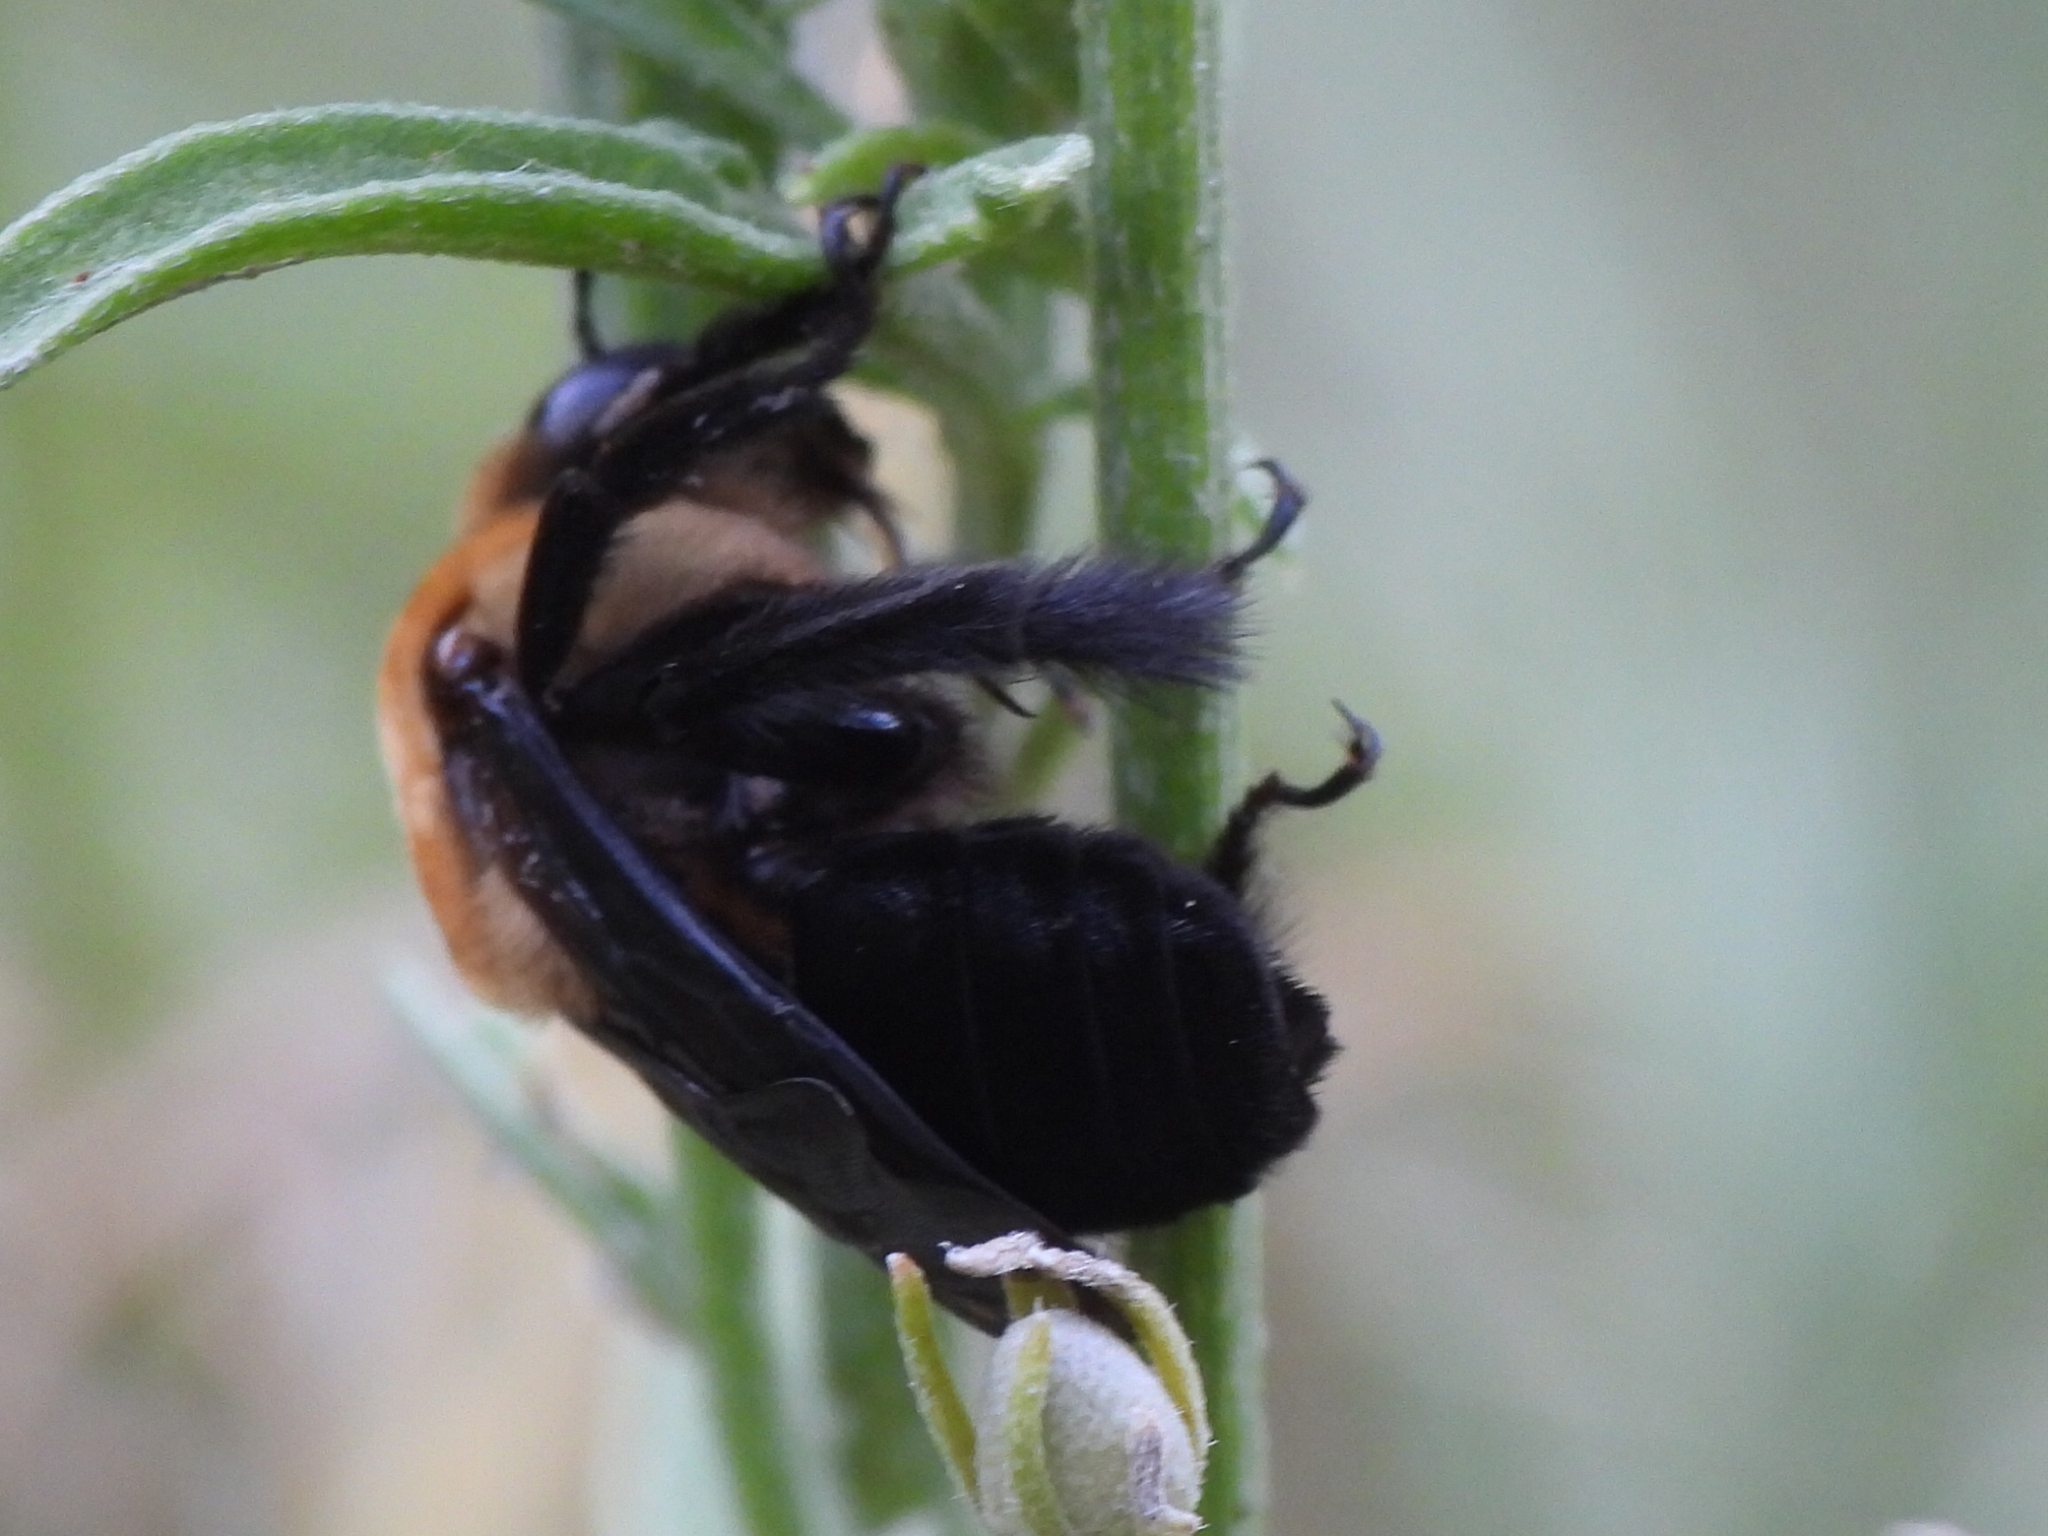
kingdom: Animalia
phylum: Arthropoda
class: Insecta
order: Hymenoptera
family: Apidae
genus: Ptilothrix
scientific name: Ptilothrix bombiformis
